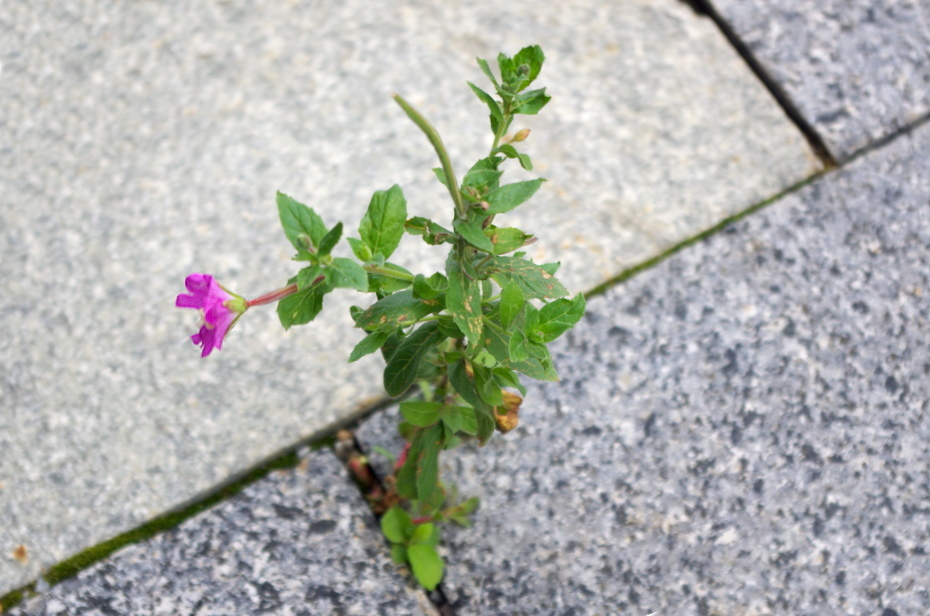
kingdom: Plantae
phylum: Tracheophyta
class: Magnoliopsida
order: Myrtales
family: Onagraceae
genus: Epilobium
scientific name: Epilobium hirsutum
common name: Great willowherb
